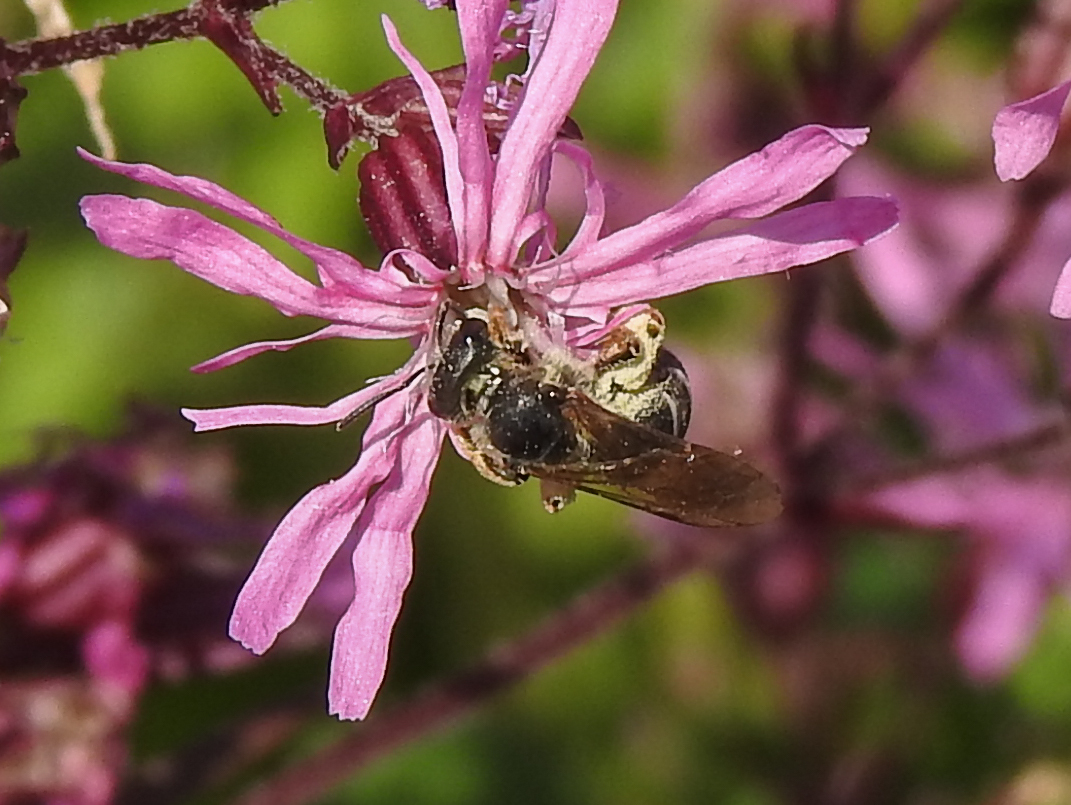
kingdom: Animalia
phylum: Arthropoda
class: Insecta
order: Hymenoptera
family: Halictidae
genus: Halictus
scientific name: Halictus ligatus
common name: Ligated furrow bee
